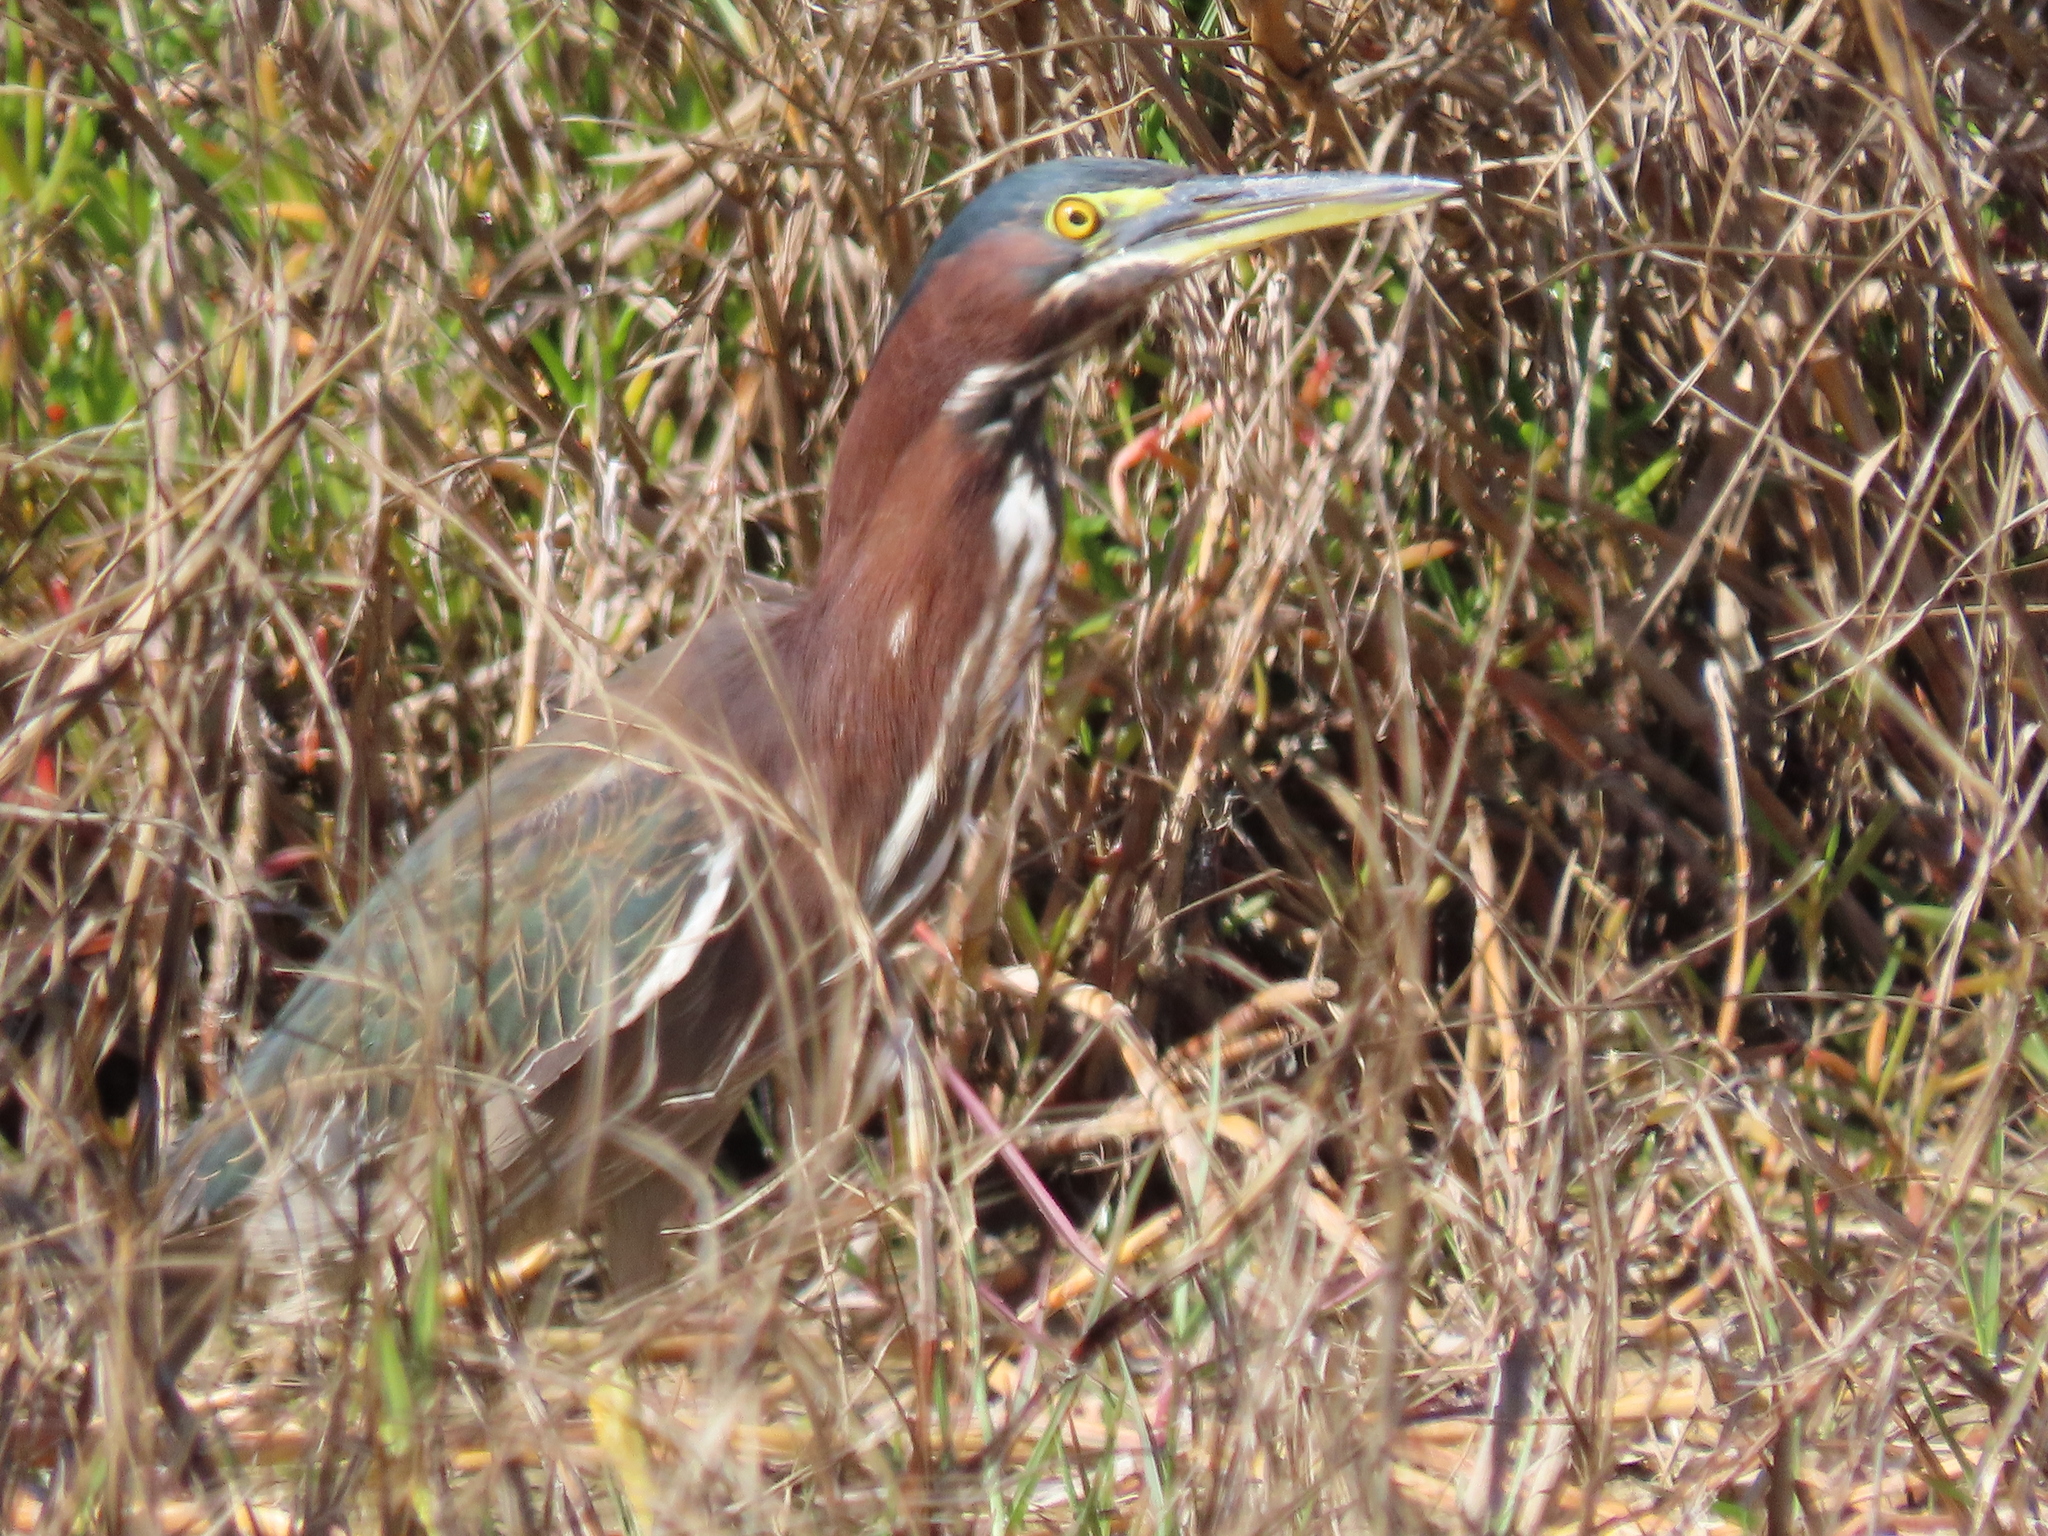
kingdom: Animalia
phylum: Chordata
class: Aves
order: Pelecaniformes
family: Ardeidae
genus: Butorides
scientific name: Butorides virescens
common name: Green heron
